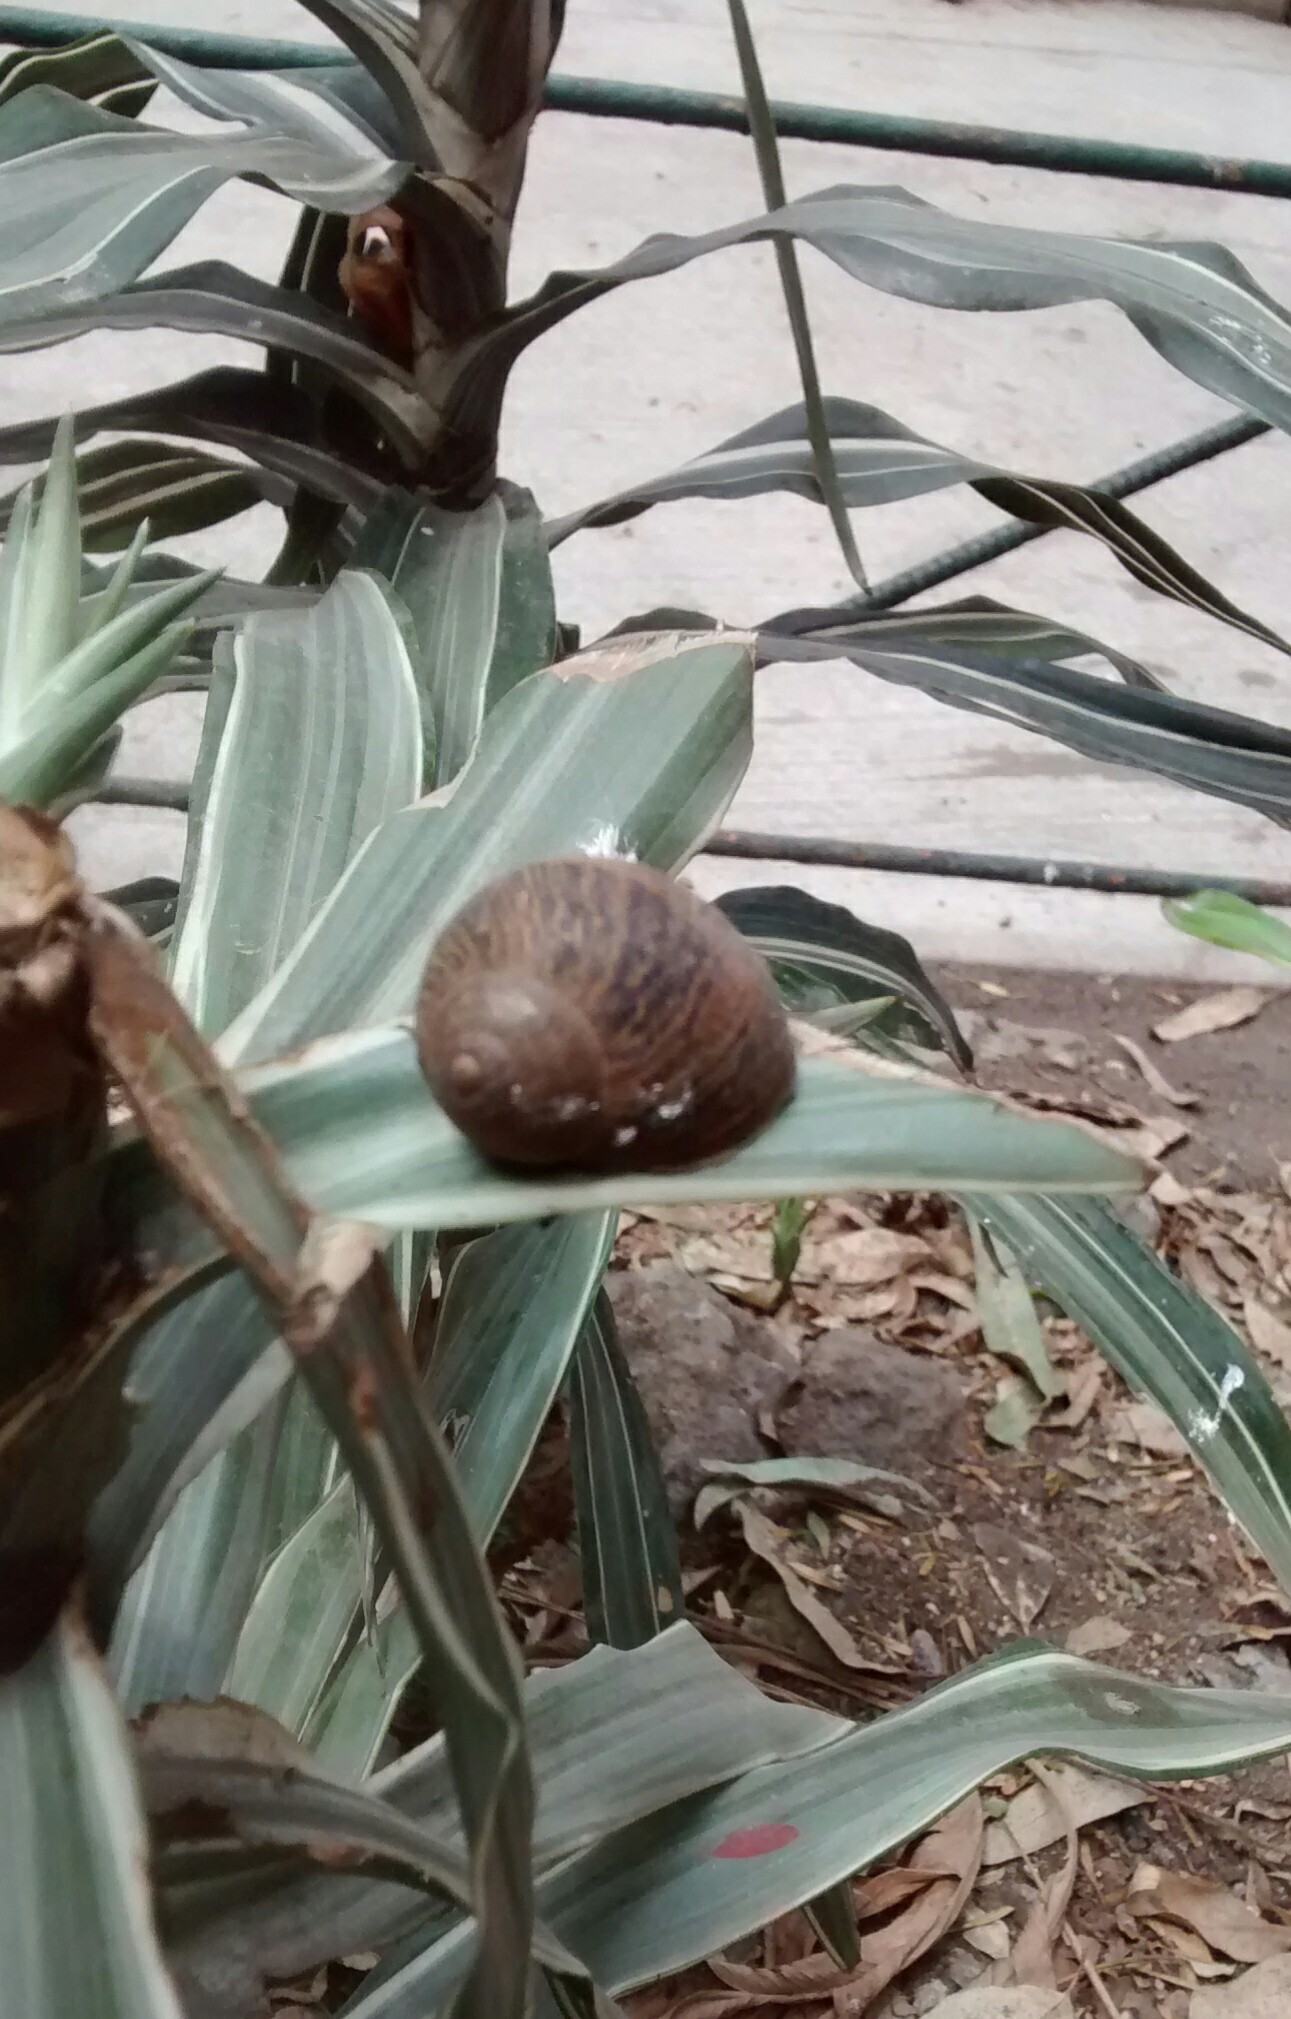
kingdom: Animalia
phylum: Mollusca
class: Gastropoda
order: Stylommatophora
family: Helicidae
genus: Cornu
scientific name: Cornu aspersum
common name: Brown garden snail
